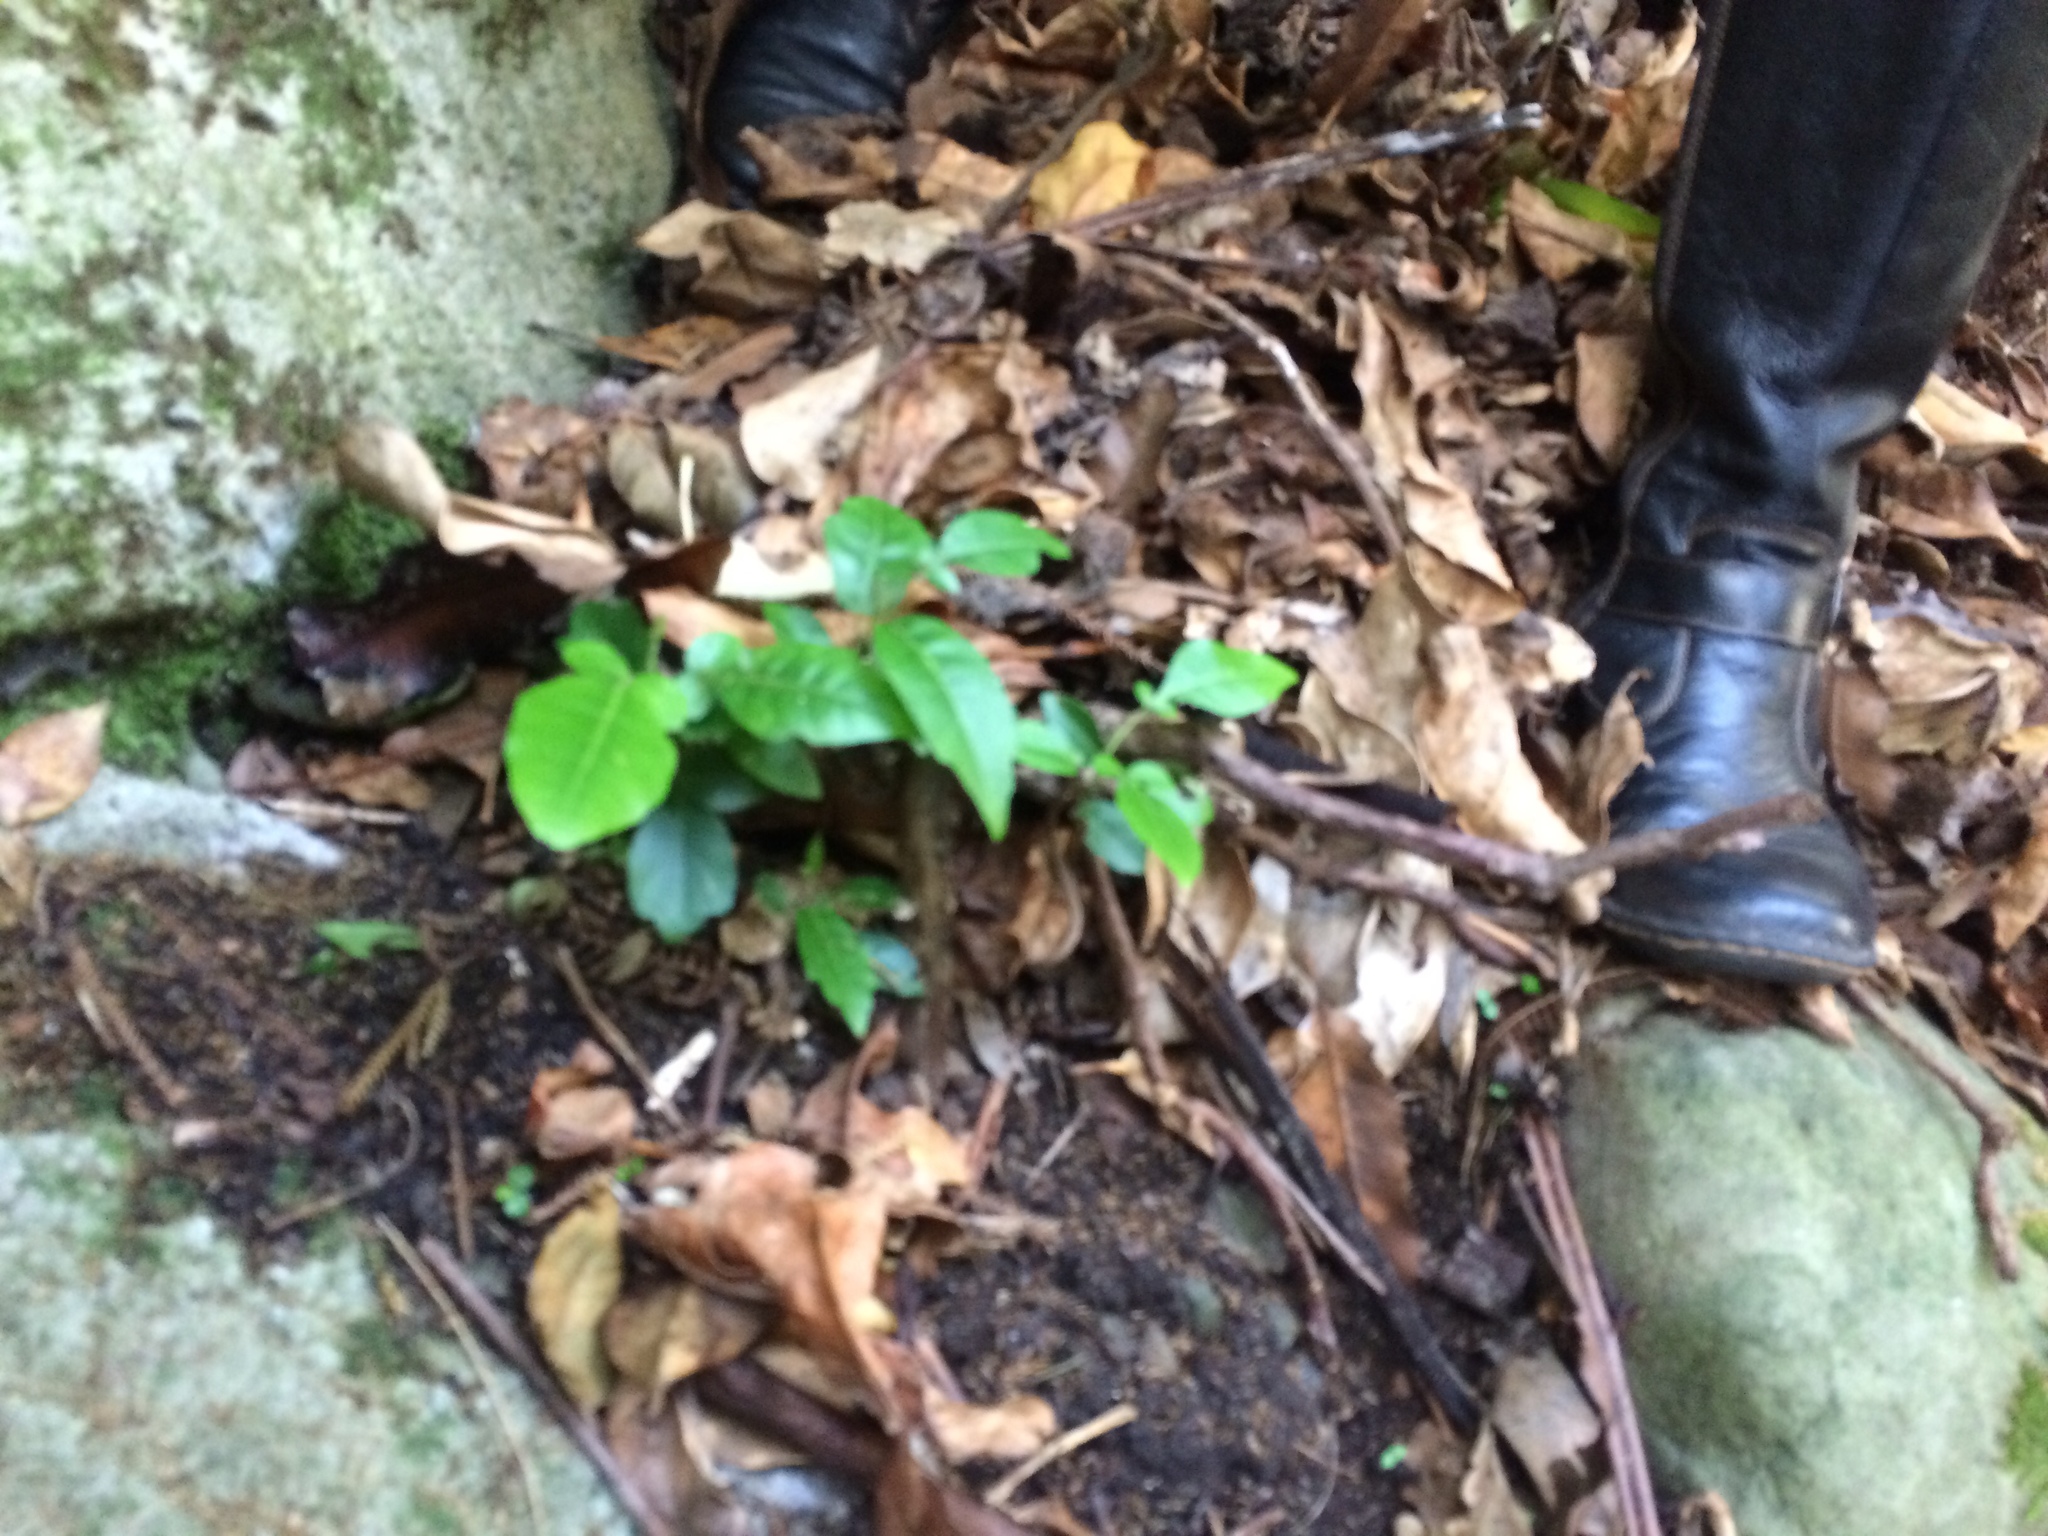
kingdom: Plantae
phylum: Tracheophyta
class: Magnoliopsida
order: Sapindales
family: Meliaceae
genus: Didymocheton
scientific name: Didymocheton spectabilis
